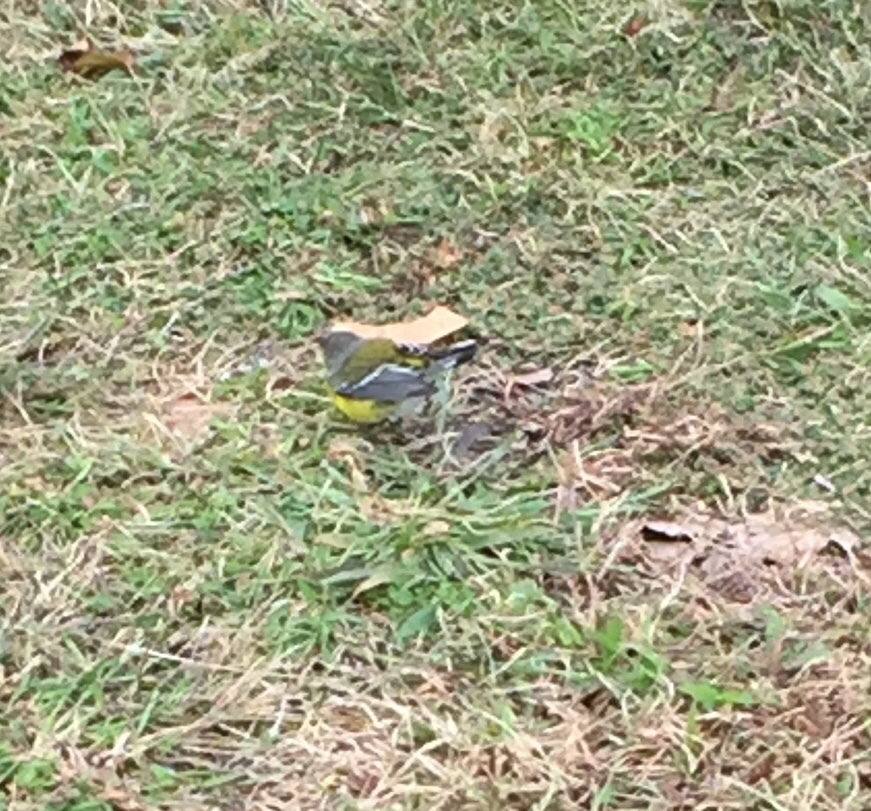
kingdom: Animalia
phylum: Chordata
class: Aves
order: Passeriformes
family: Parulidae
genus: Setophaga
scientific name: Setophaga magnolia
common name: Magnolia warbler
